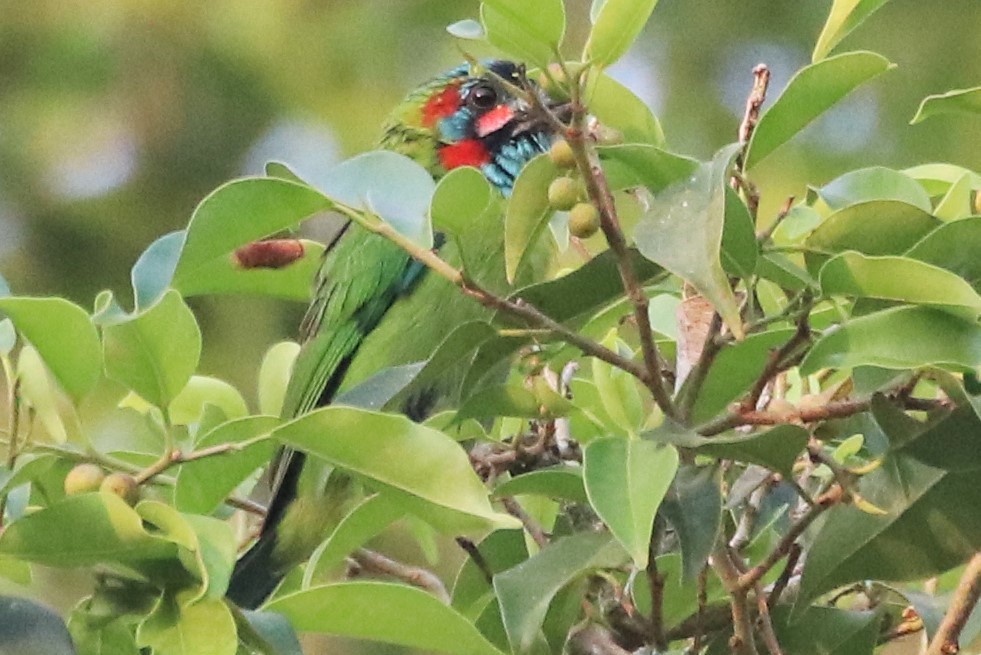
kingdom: Animalia
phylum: Chordata
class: Aves
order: Piciformes
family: Megalaimidae
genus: Psilopogon
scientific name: Psilopogon duvaucelii
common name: Blue-eared barbet
